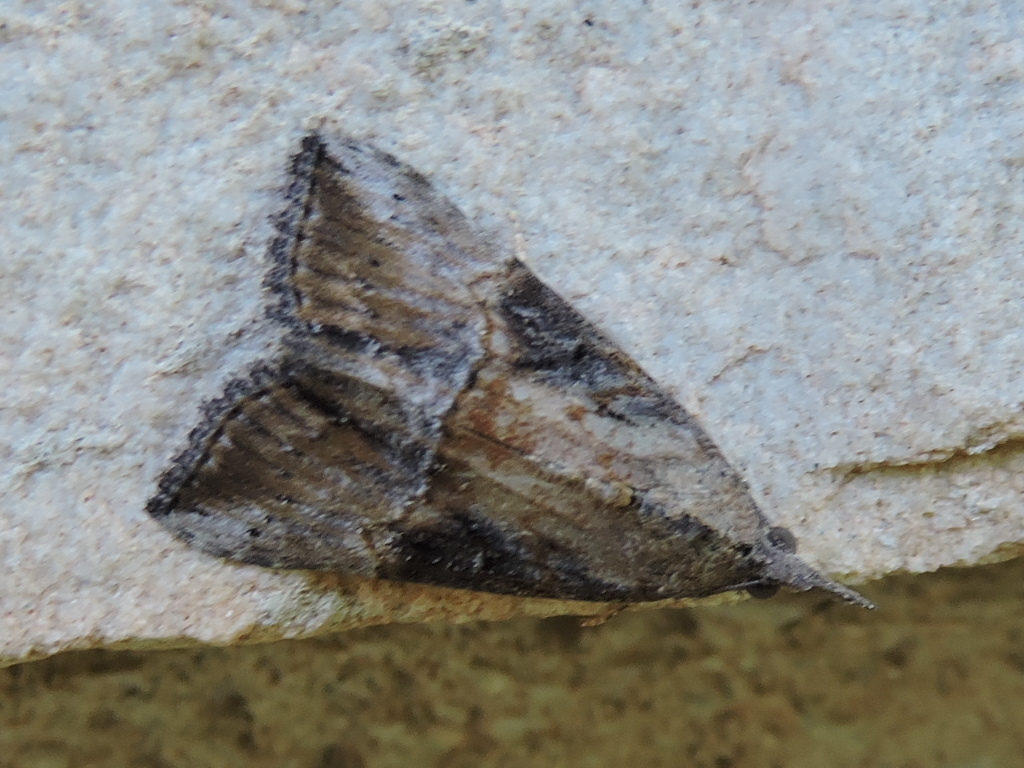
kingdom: Animalia
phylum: Arthropoda
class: Insecta
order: Lepidoptera
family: Erebidae
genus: Hypena
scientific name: Hypena scabra
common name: Green cloverworm
